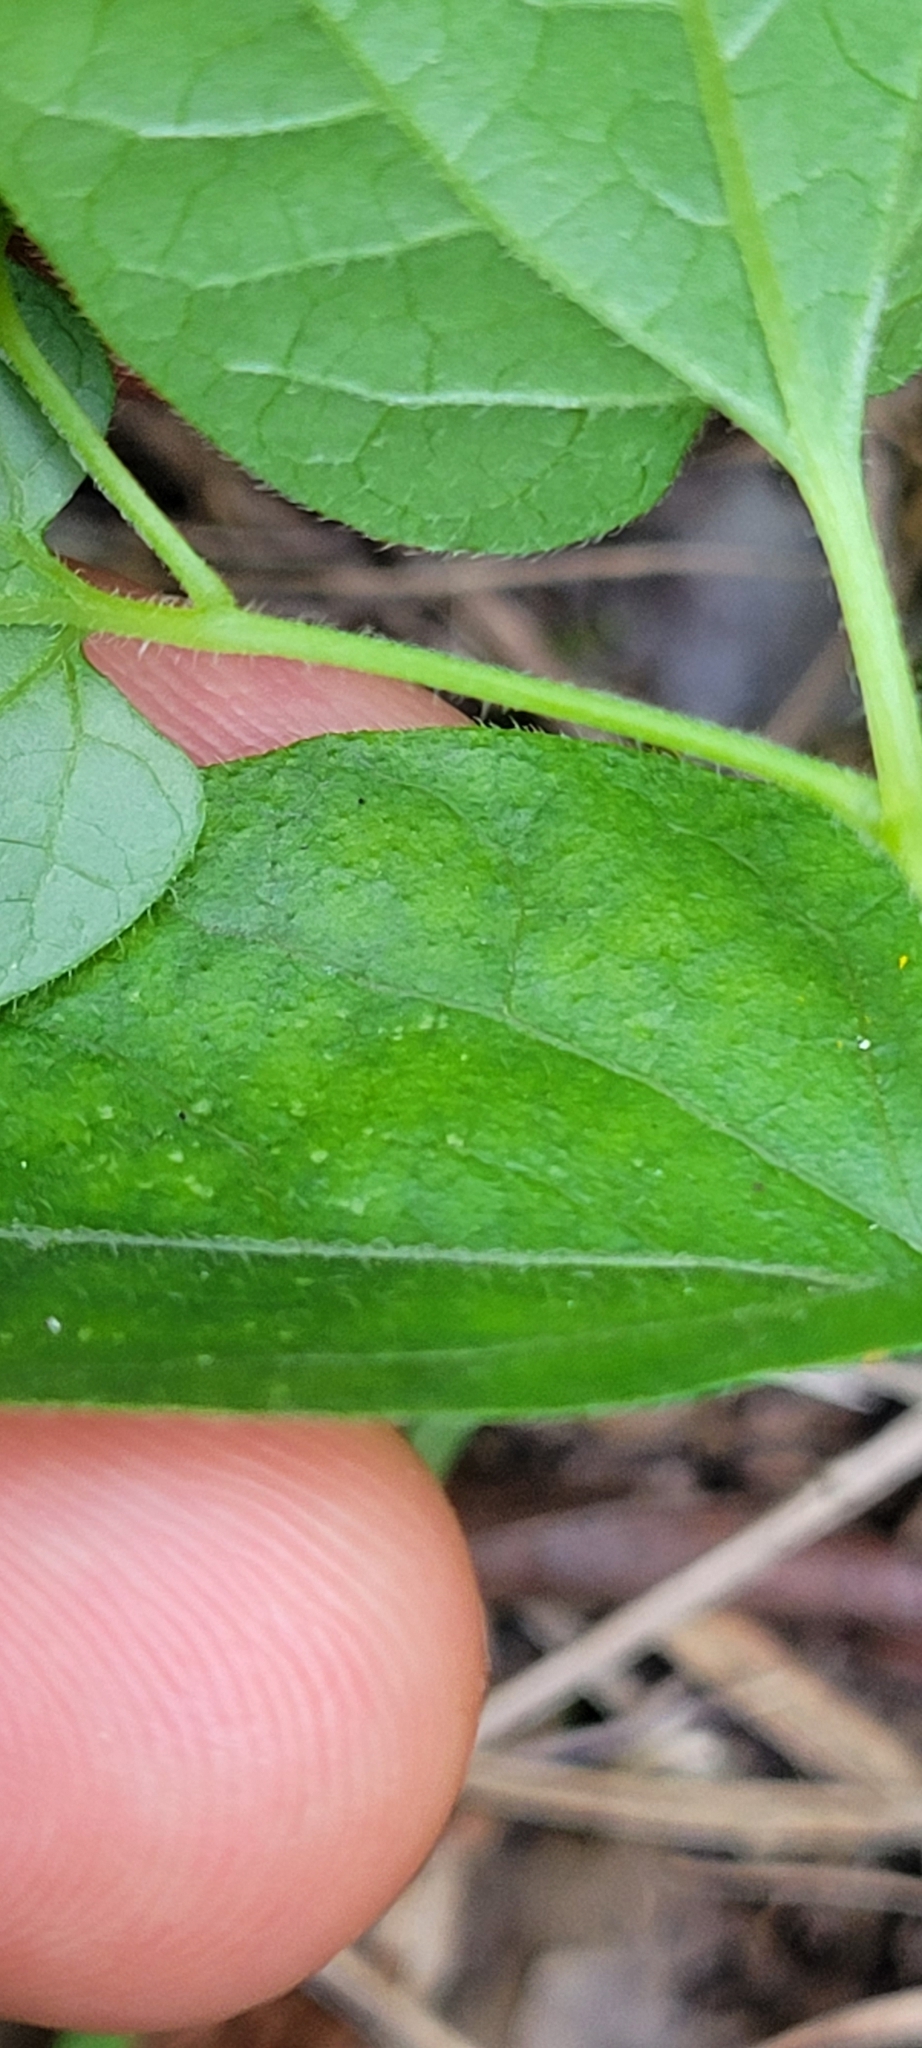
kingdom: Plantae
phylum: Tracheophyta
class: Magnoliopsida
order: Piperales
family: Aristolochiaceae
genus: Endodeca
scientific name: Endodeca serpentaria
